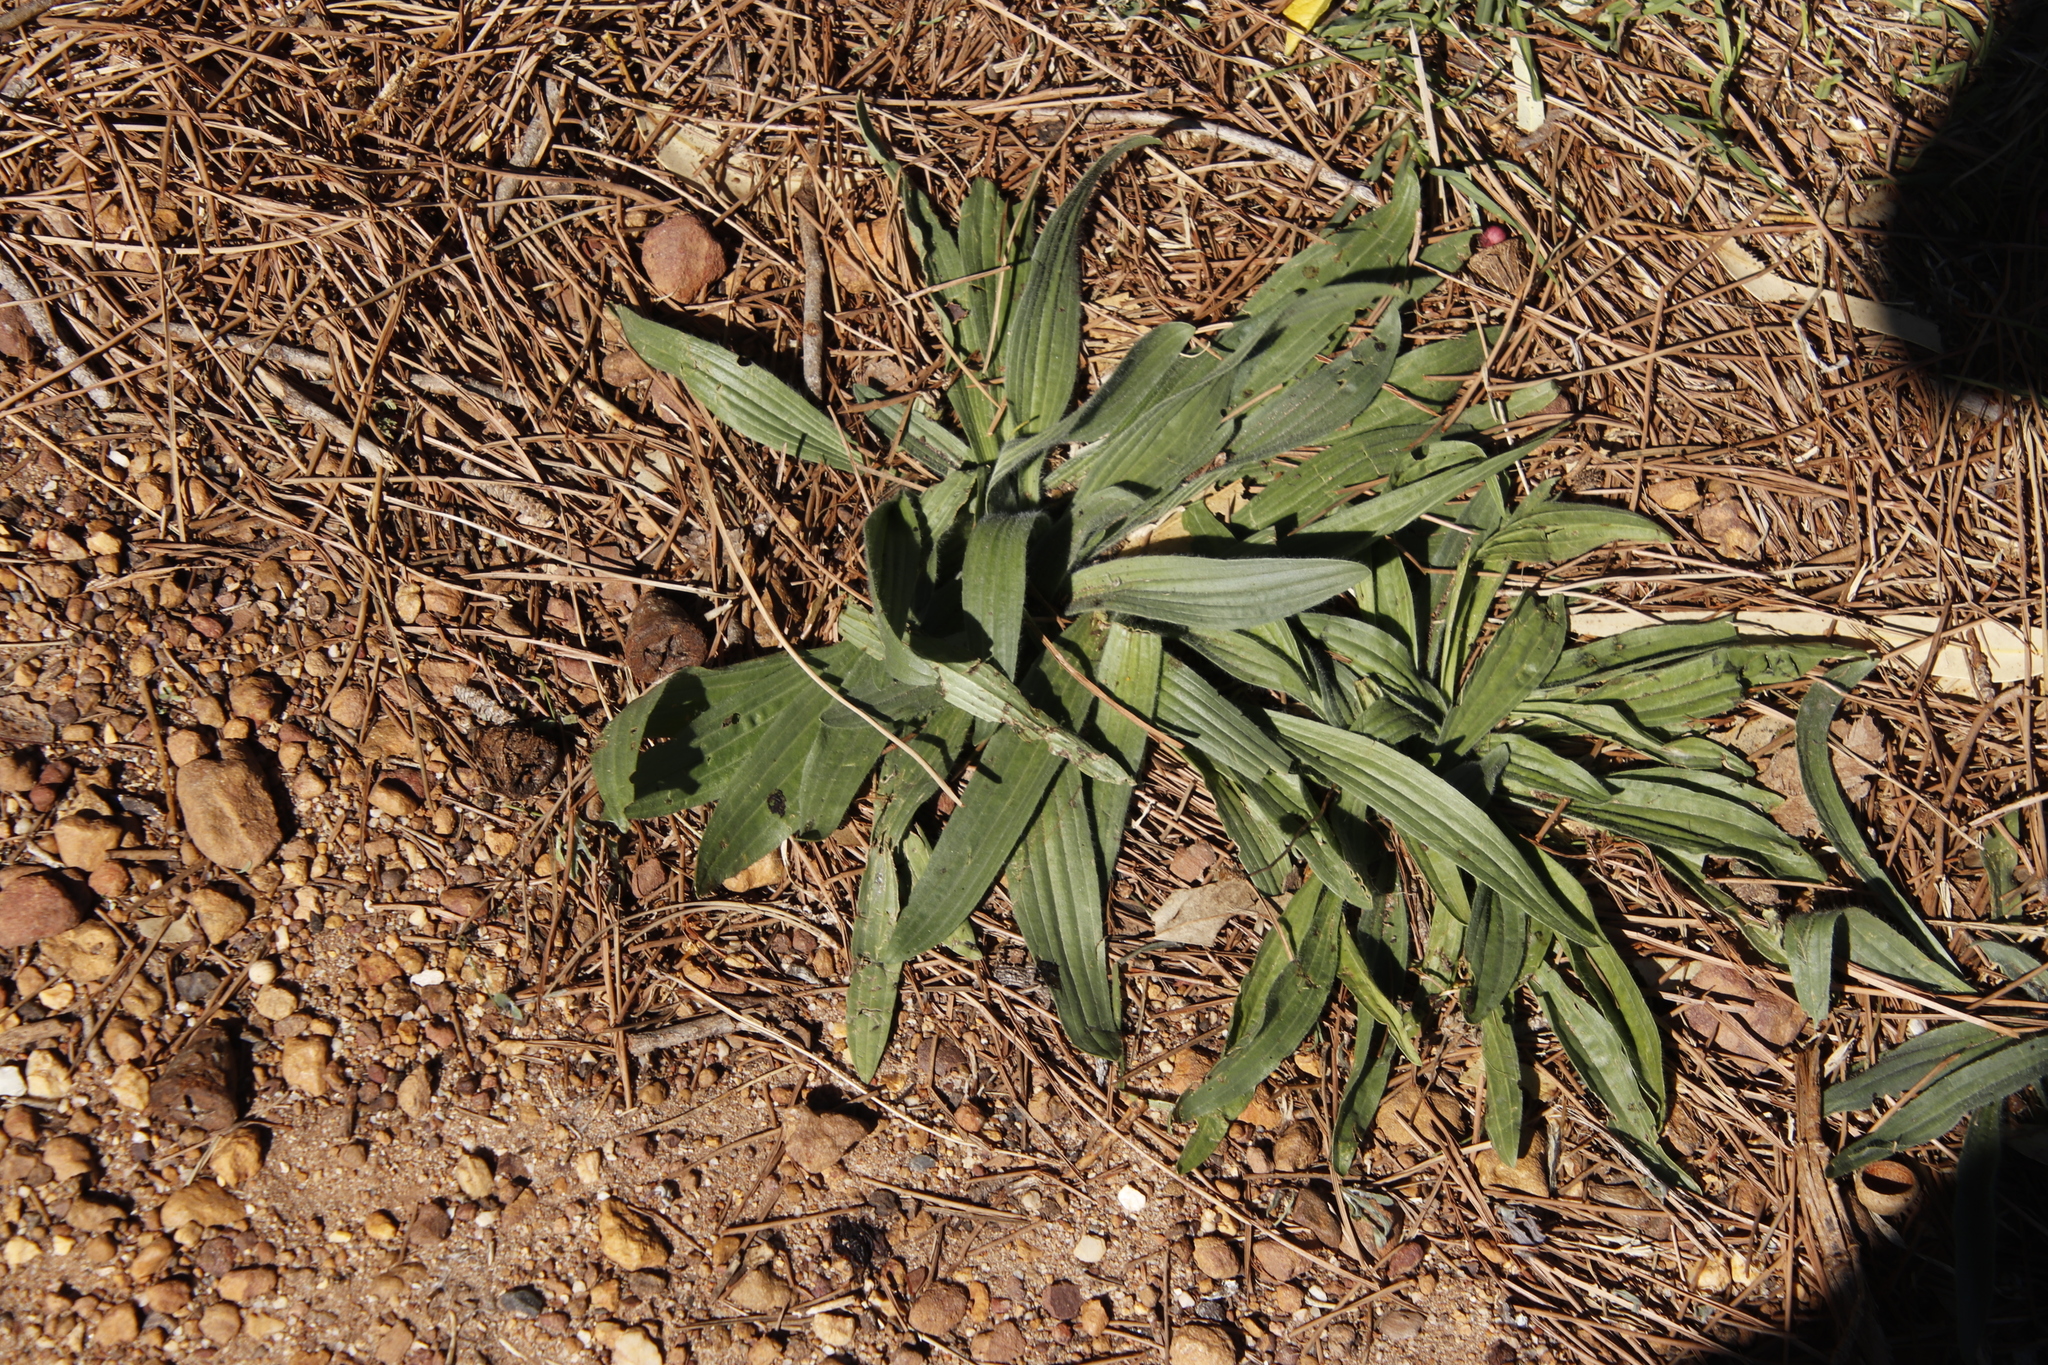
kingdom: Plantae
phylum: Tracheophyta
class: Magnoliopsida
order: Lamiales
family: Plantaginaceae
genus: Plantago
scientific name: Plantago lanceolata
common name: Ribwort plantain
